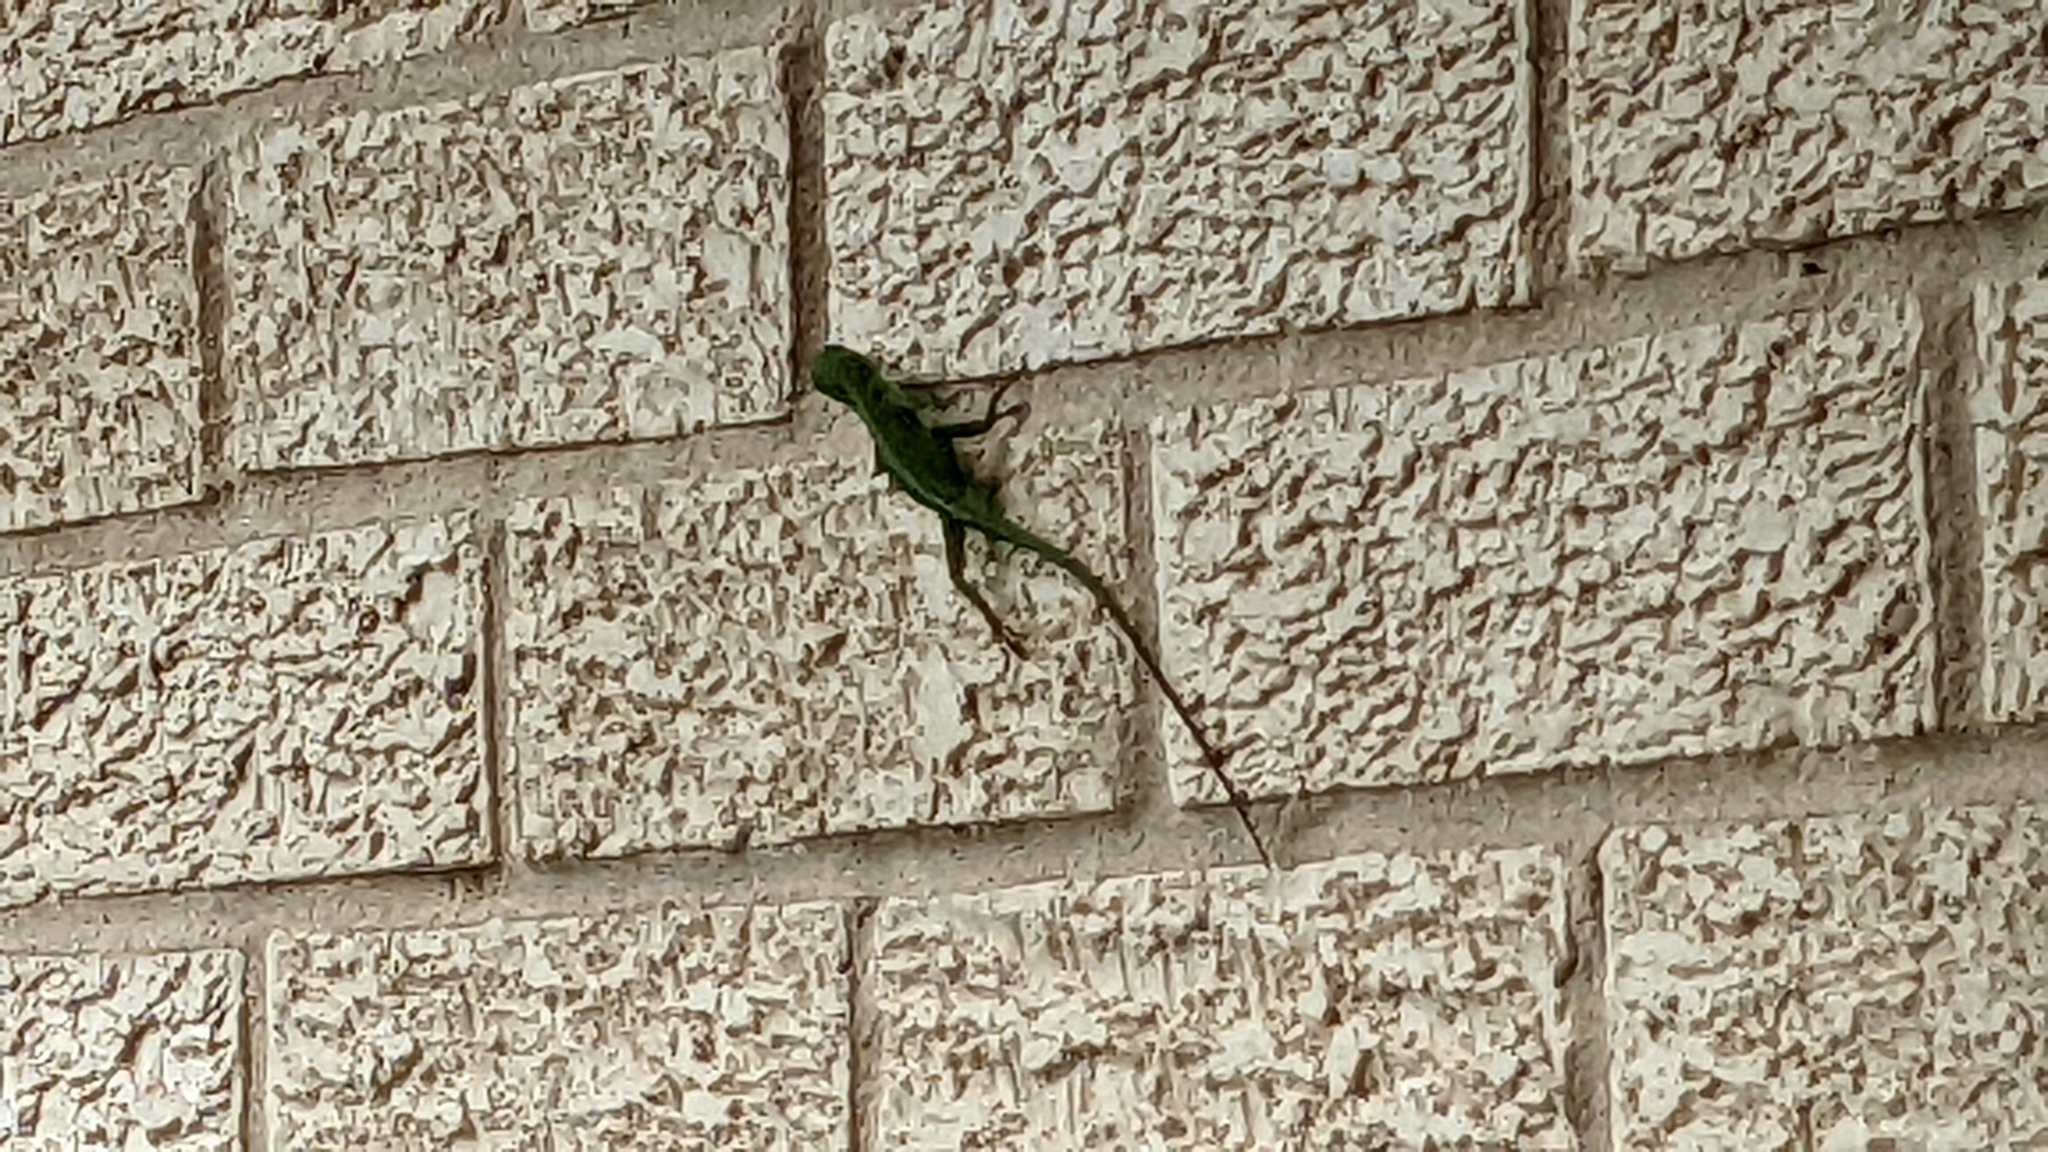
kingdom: Animalia
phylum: Chordata
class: Squamata
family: Dactyloidae
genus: Anolis
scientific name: Anolis carolinensis
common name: Green anole
